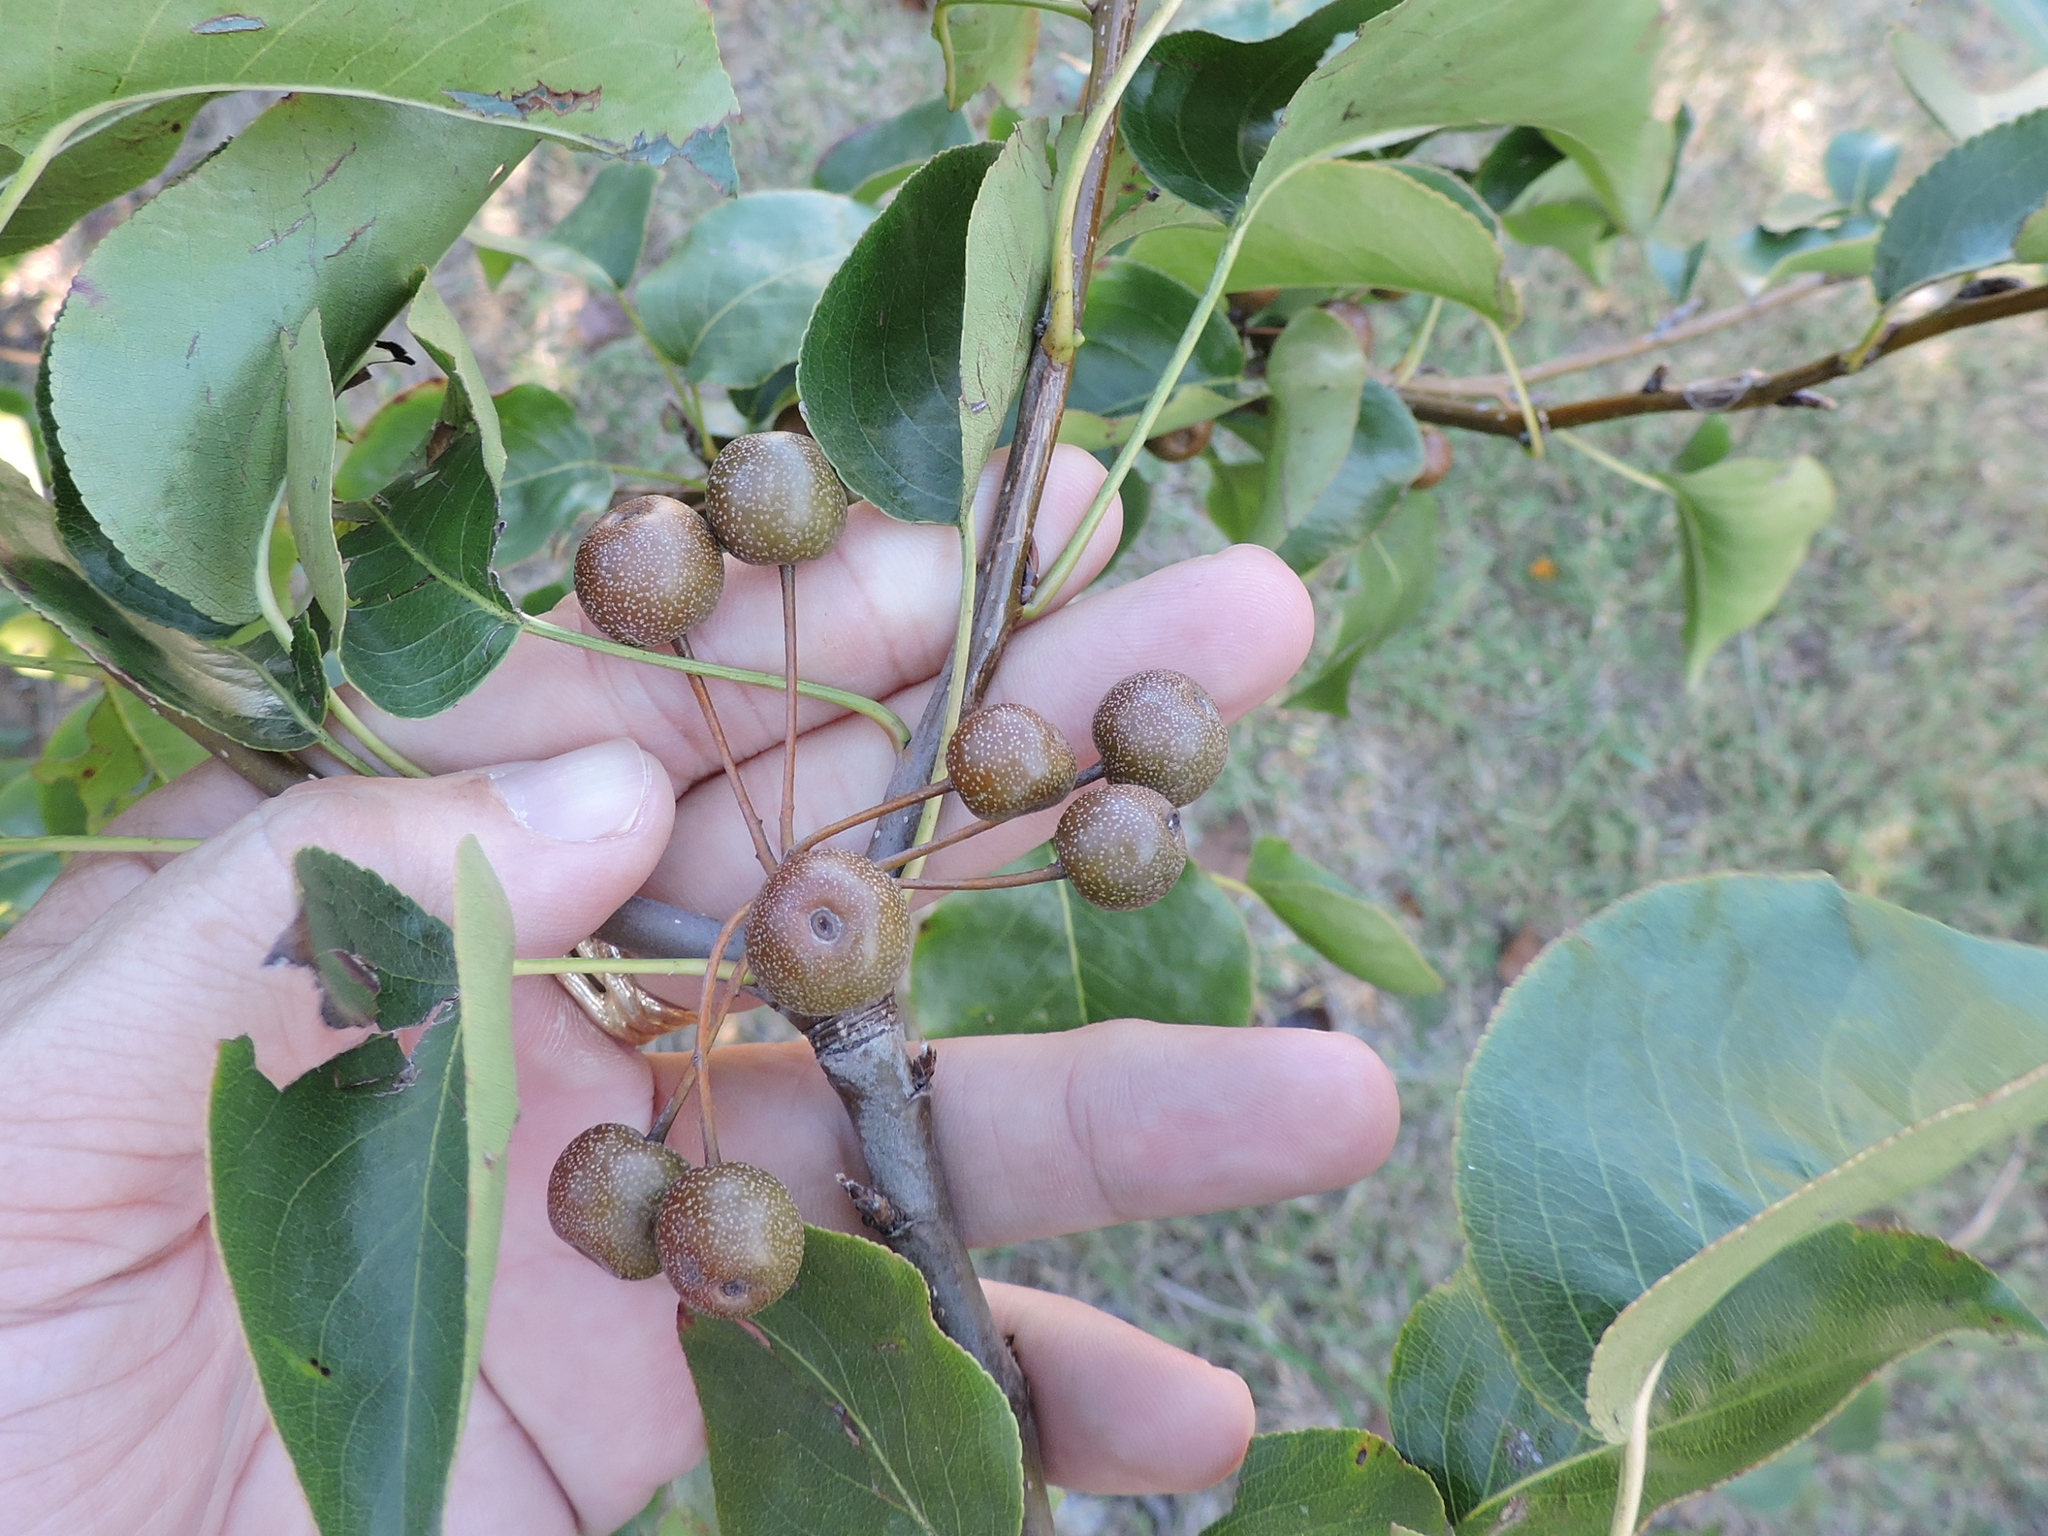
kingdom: Plantae
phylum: Tracheophyta
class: Magnoliopsida
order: Rosales
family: Rosaceae
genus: Pyrus
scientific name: Pyrus calleryana
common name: Callery pear
